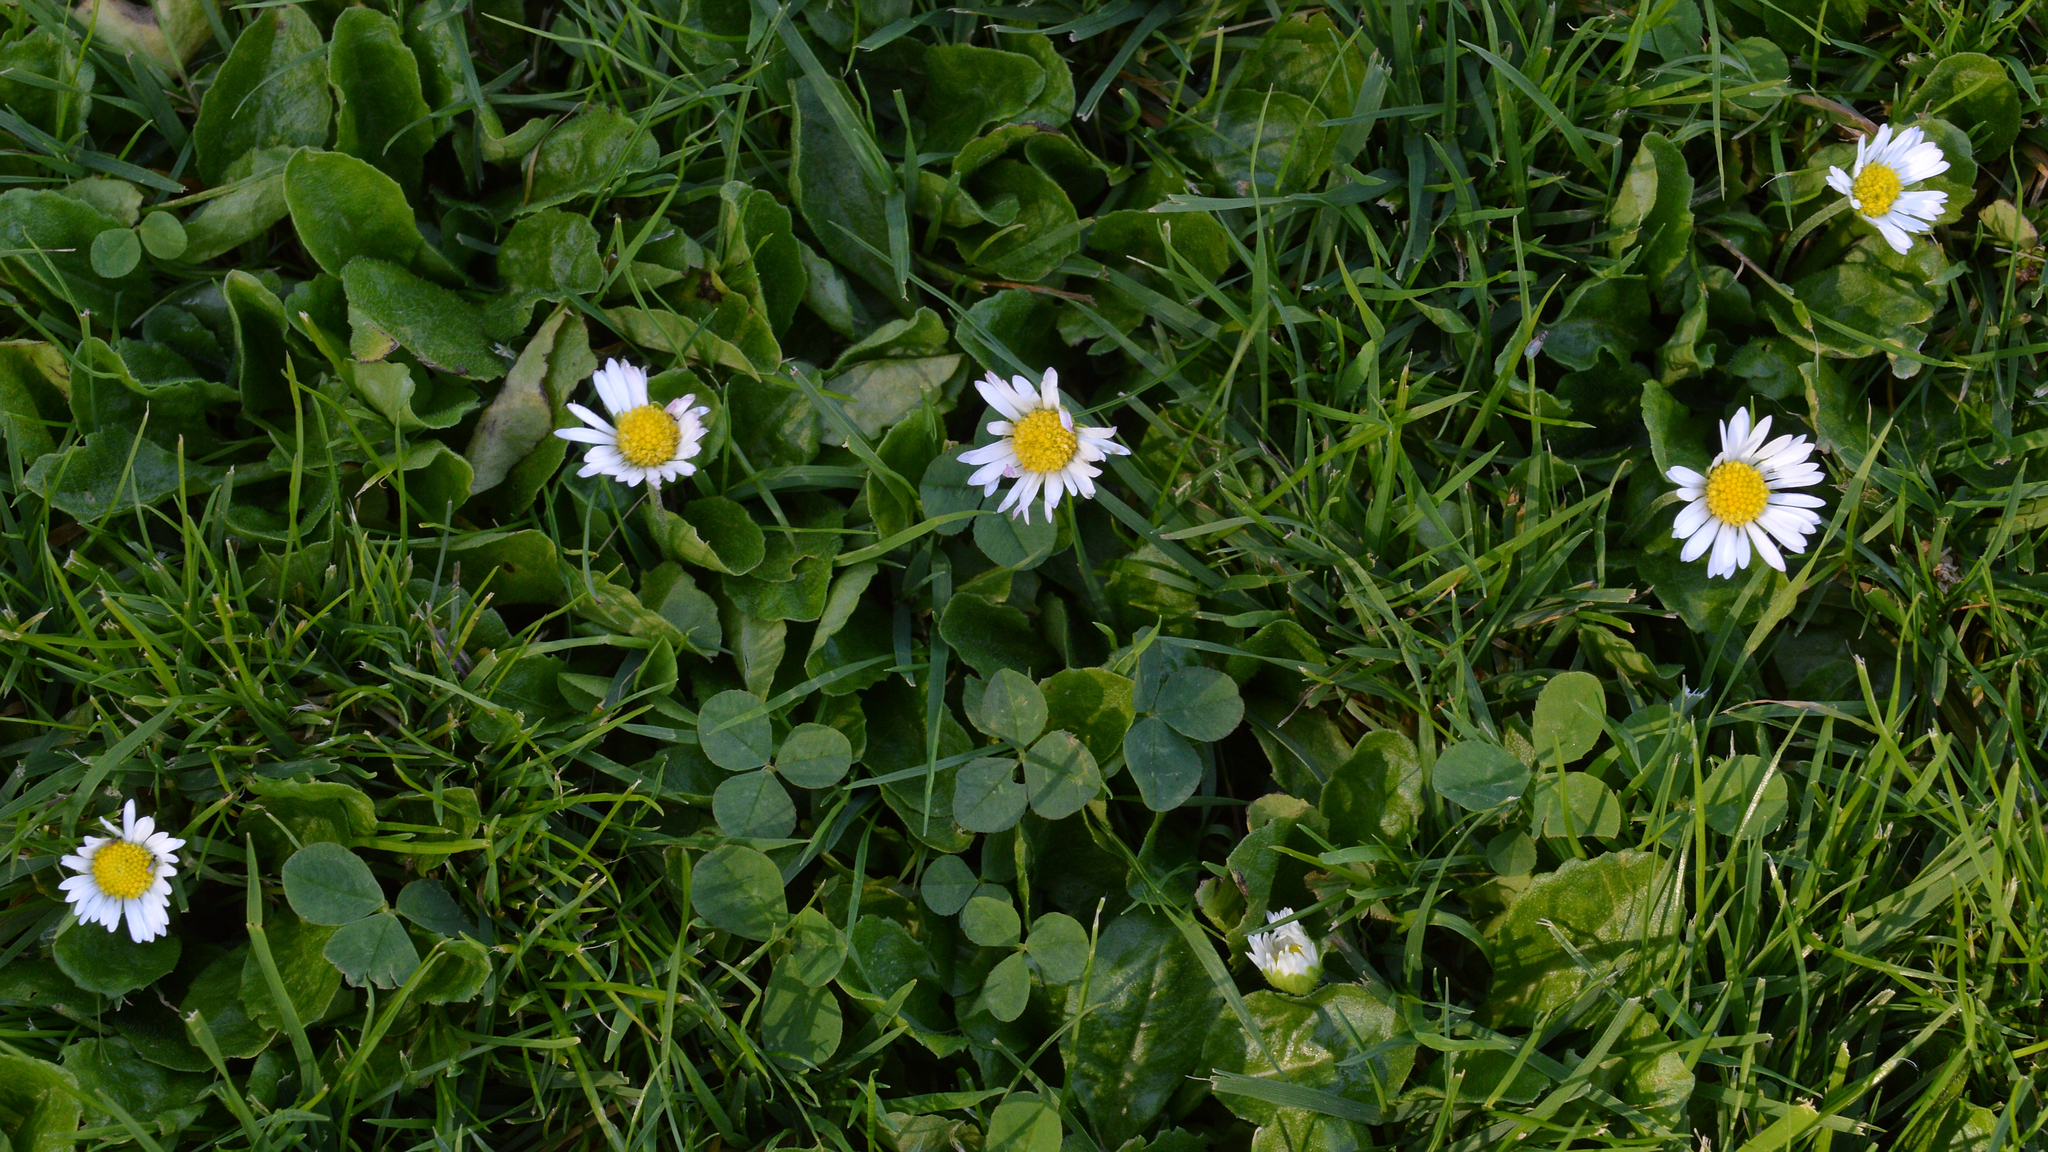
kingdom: Plantae
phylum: Tracheophyta
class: Magnoliopsida
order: Asterales
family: Asteraceae
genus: Bellis
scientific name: Bellis perennis
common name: Lawndaisy
